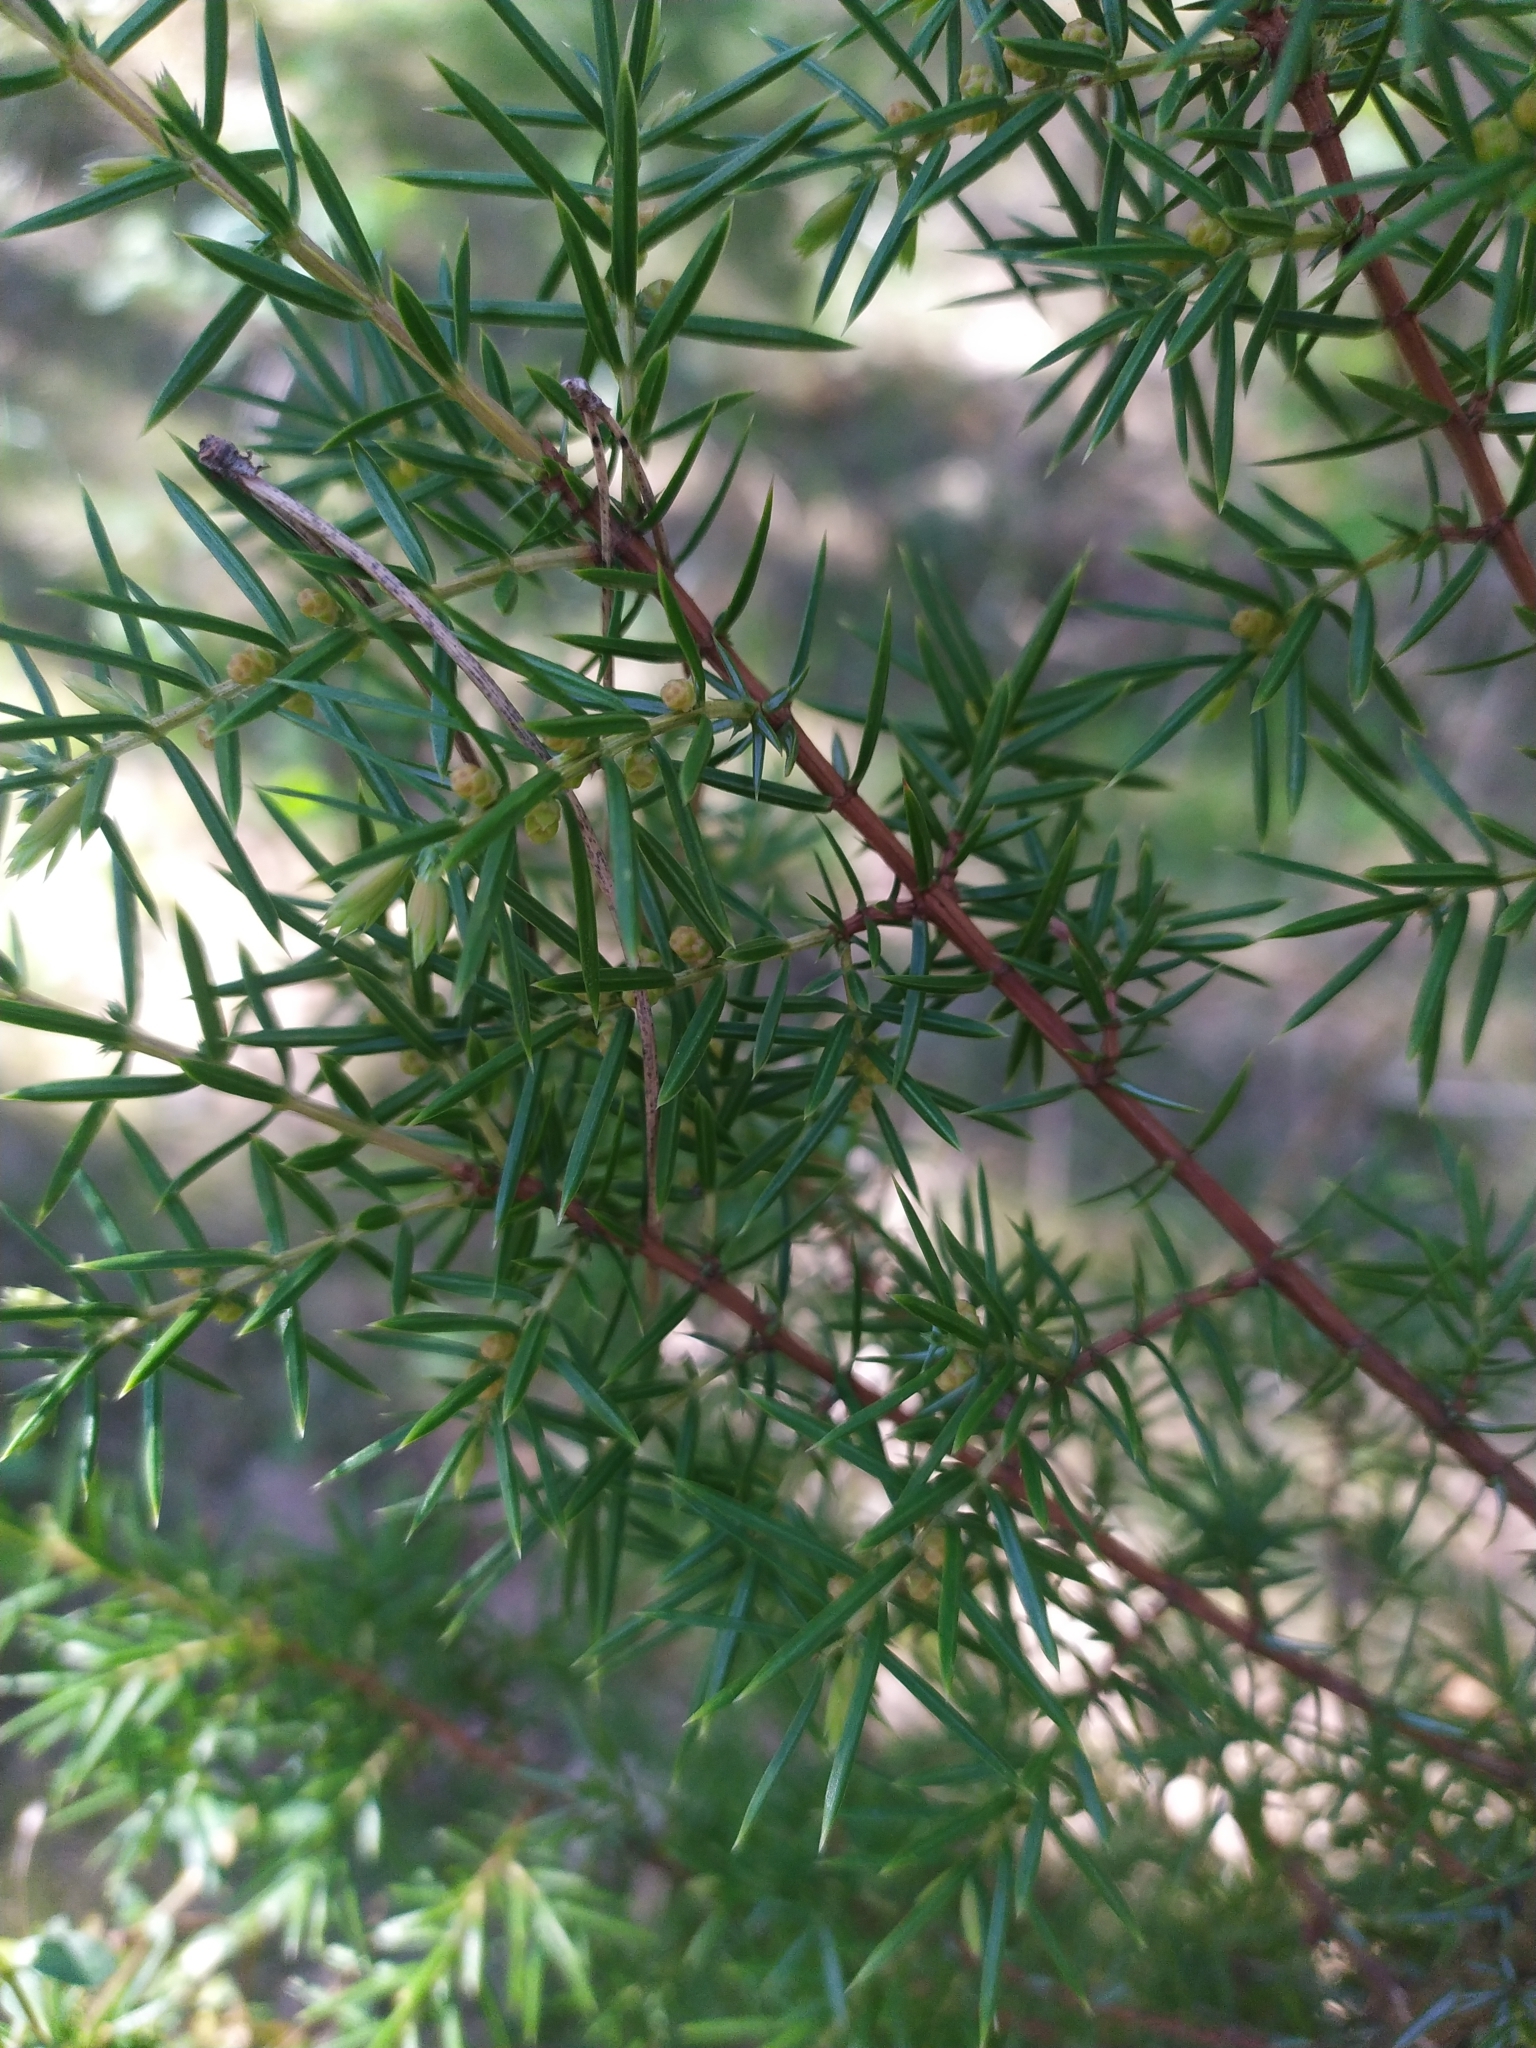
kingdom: Plantae
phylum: Tracheophyta
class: Pinopsida
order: Pinales
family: Cupressaceae
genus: Juniperus
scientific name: Juniperus communis
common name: Common juniper
